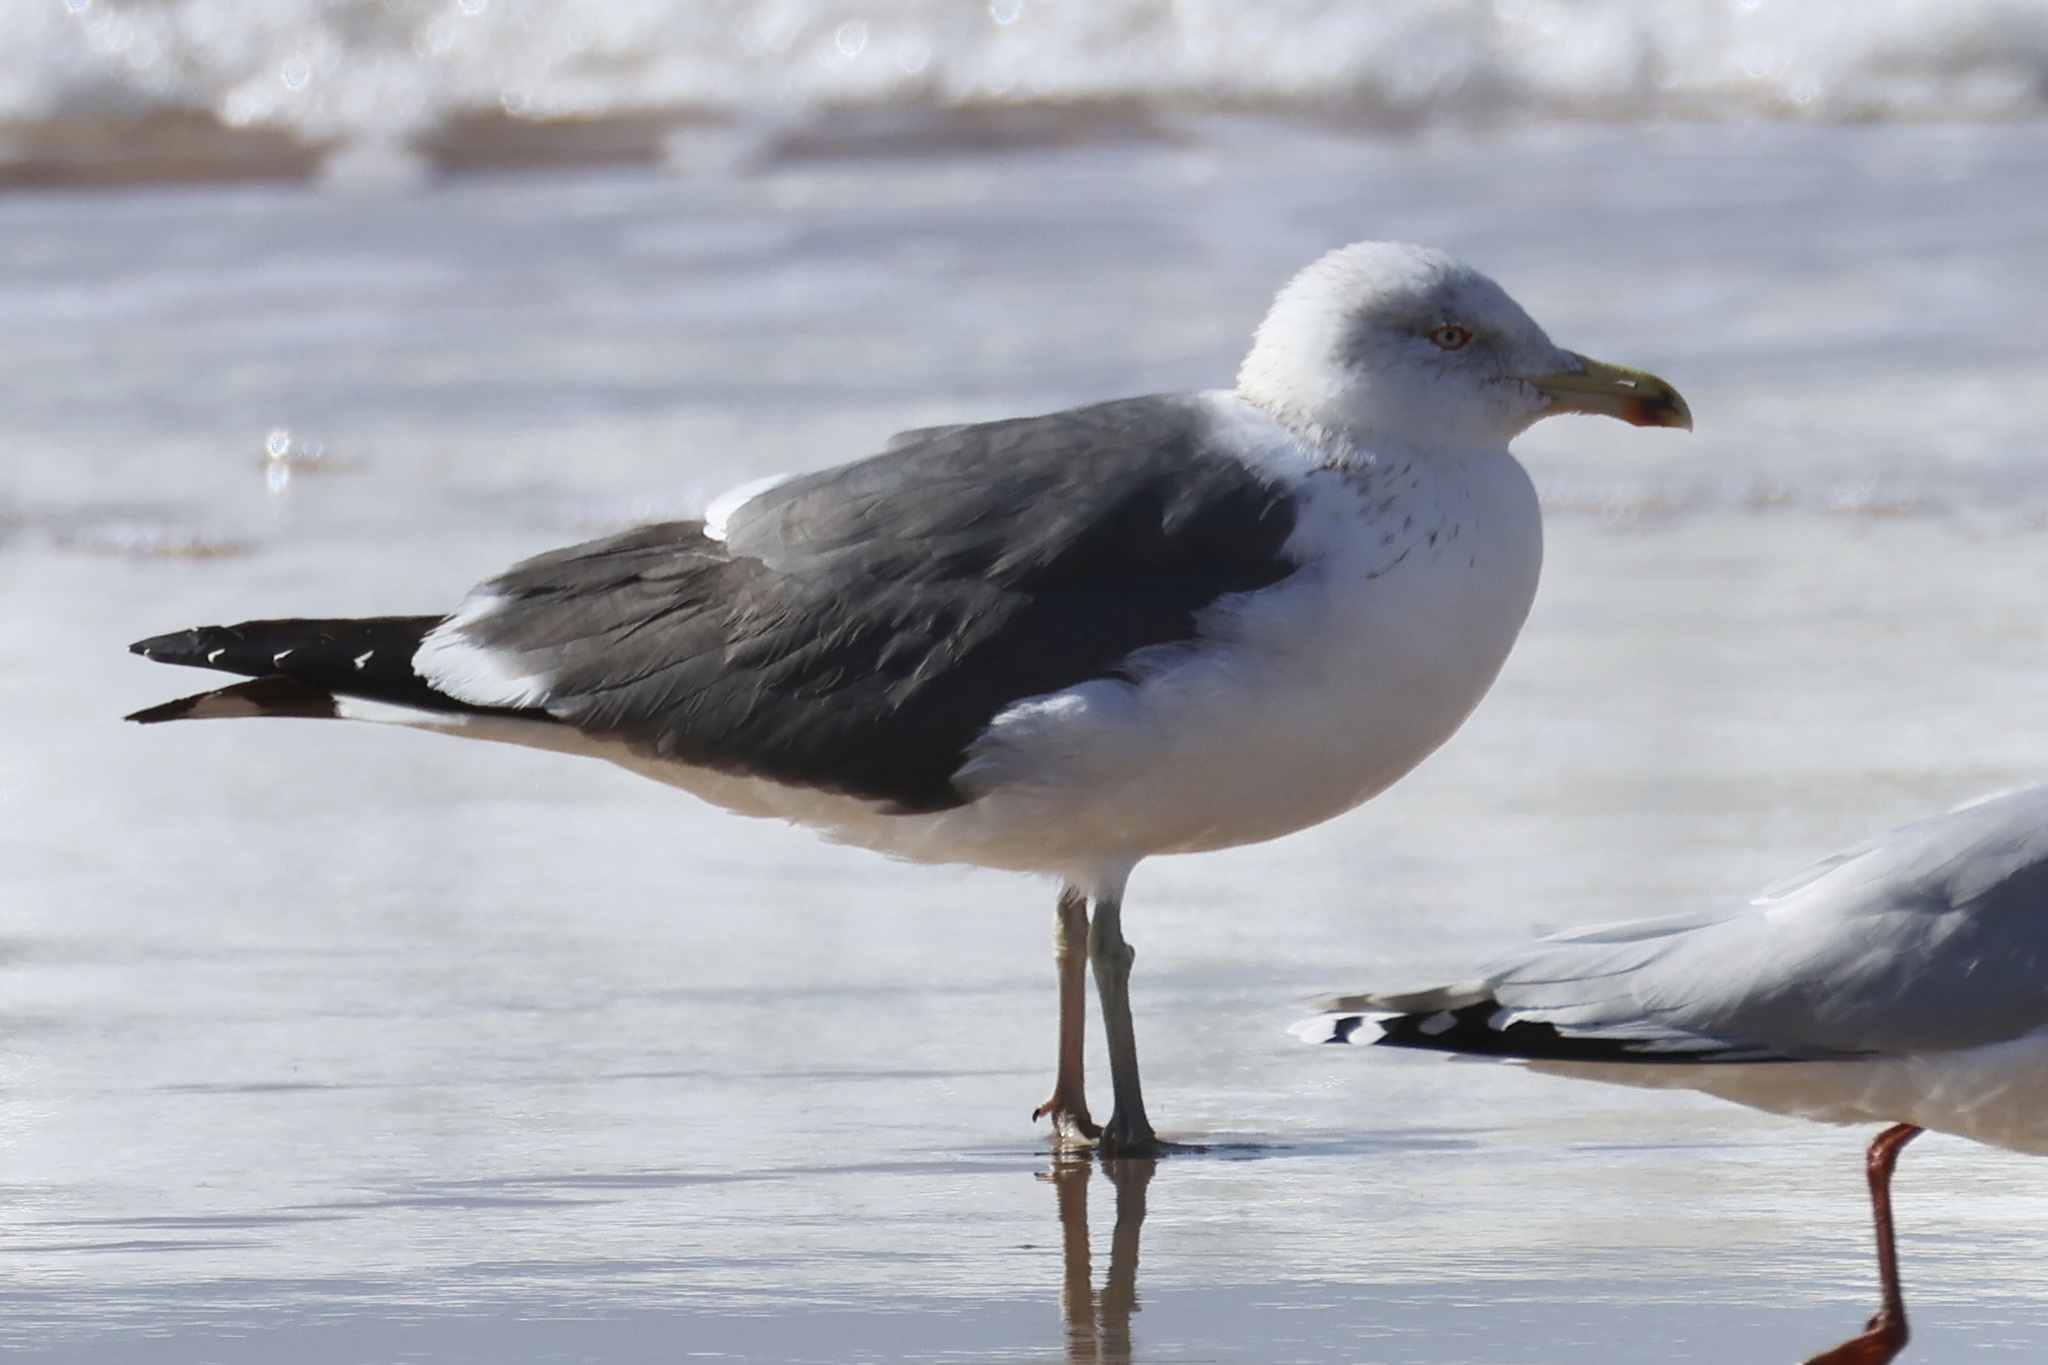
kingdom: Animalia
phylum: Chordata
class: Aves
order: Charadriiformes
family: Laridae
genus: Larus
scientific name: Larus fuscus
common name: Lesser black-backed gull
